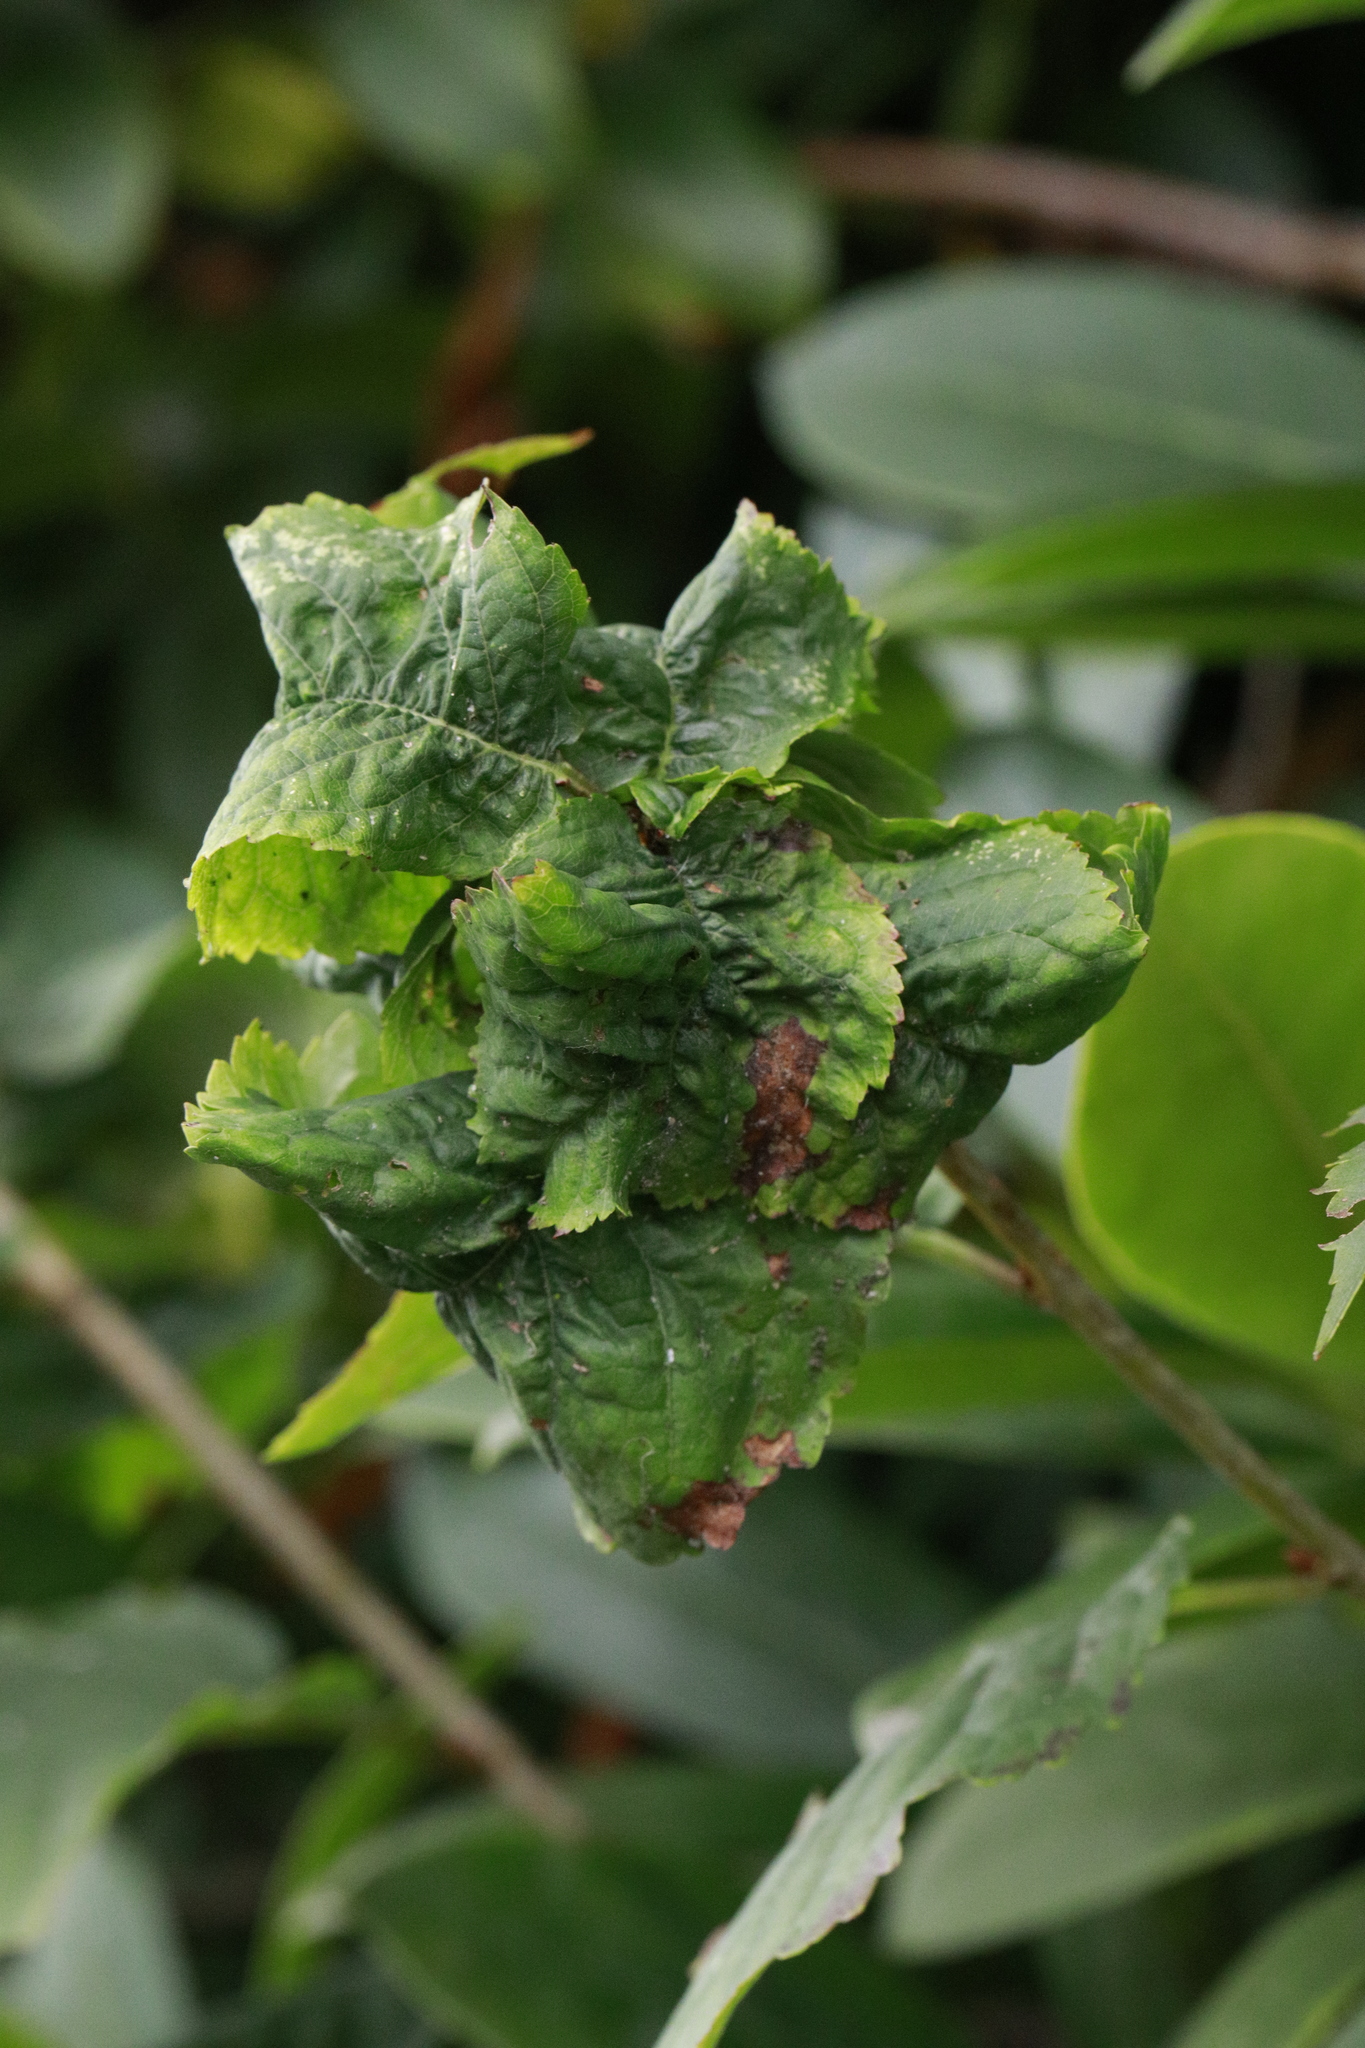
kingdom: Animalia
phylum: Arthropoda
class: Insecta
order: Hemiptera
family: Aphididae
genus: Myzus
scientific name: Myzus cerasi
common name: Black cherry aphid
